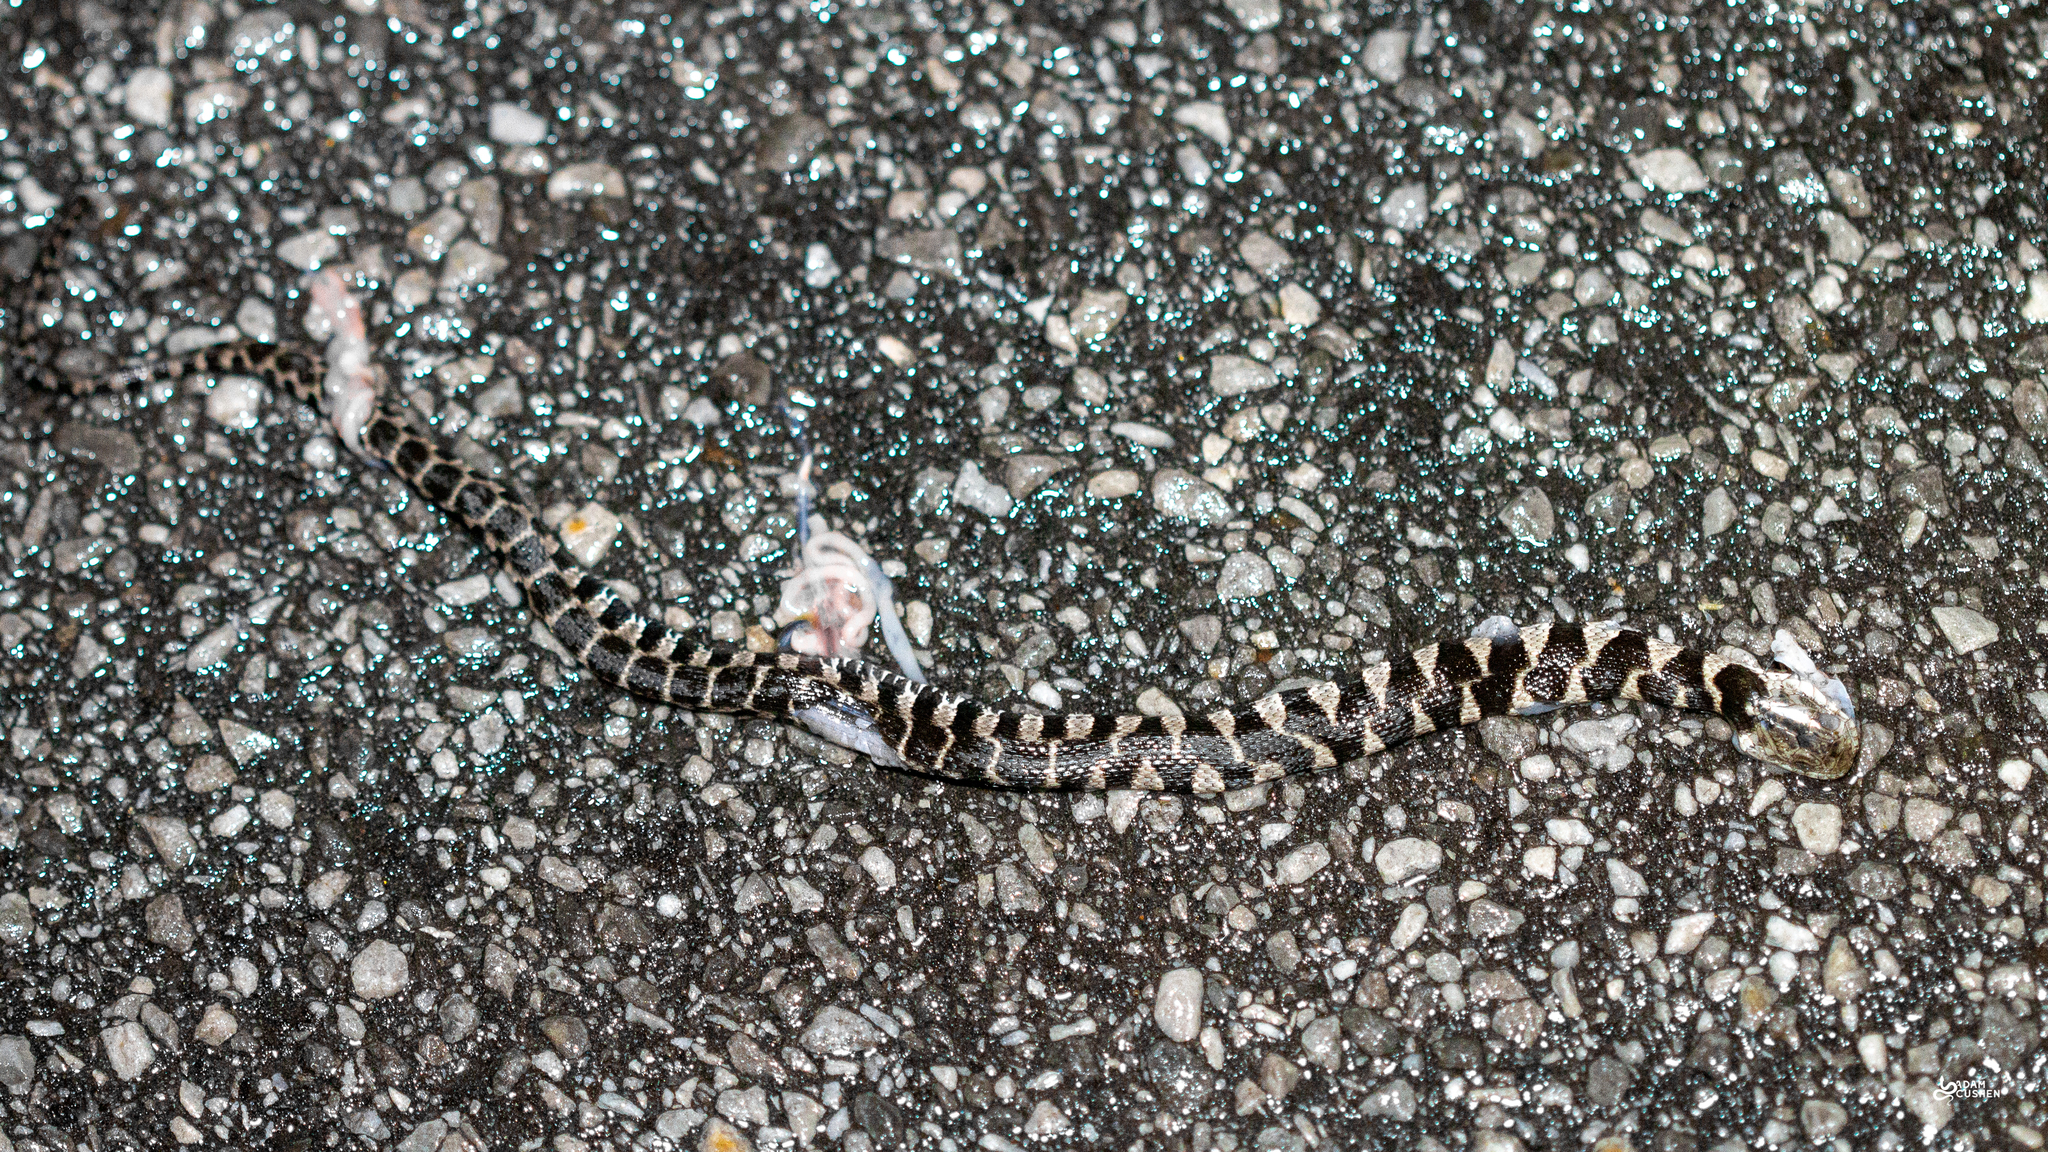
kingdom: Animalia
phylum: Chordata
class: Squamata
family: Colubridae
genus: Nerodia
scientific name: Nerodia sipedon
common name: Northern water snake
